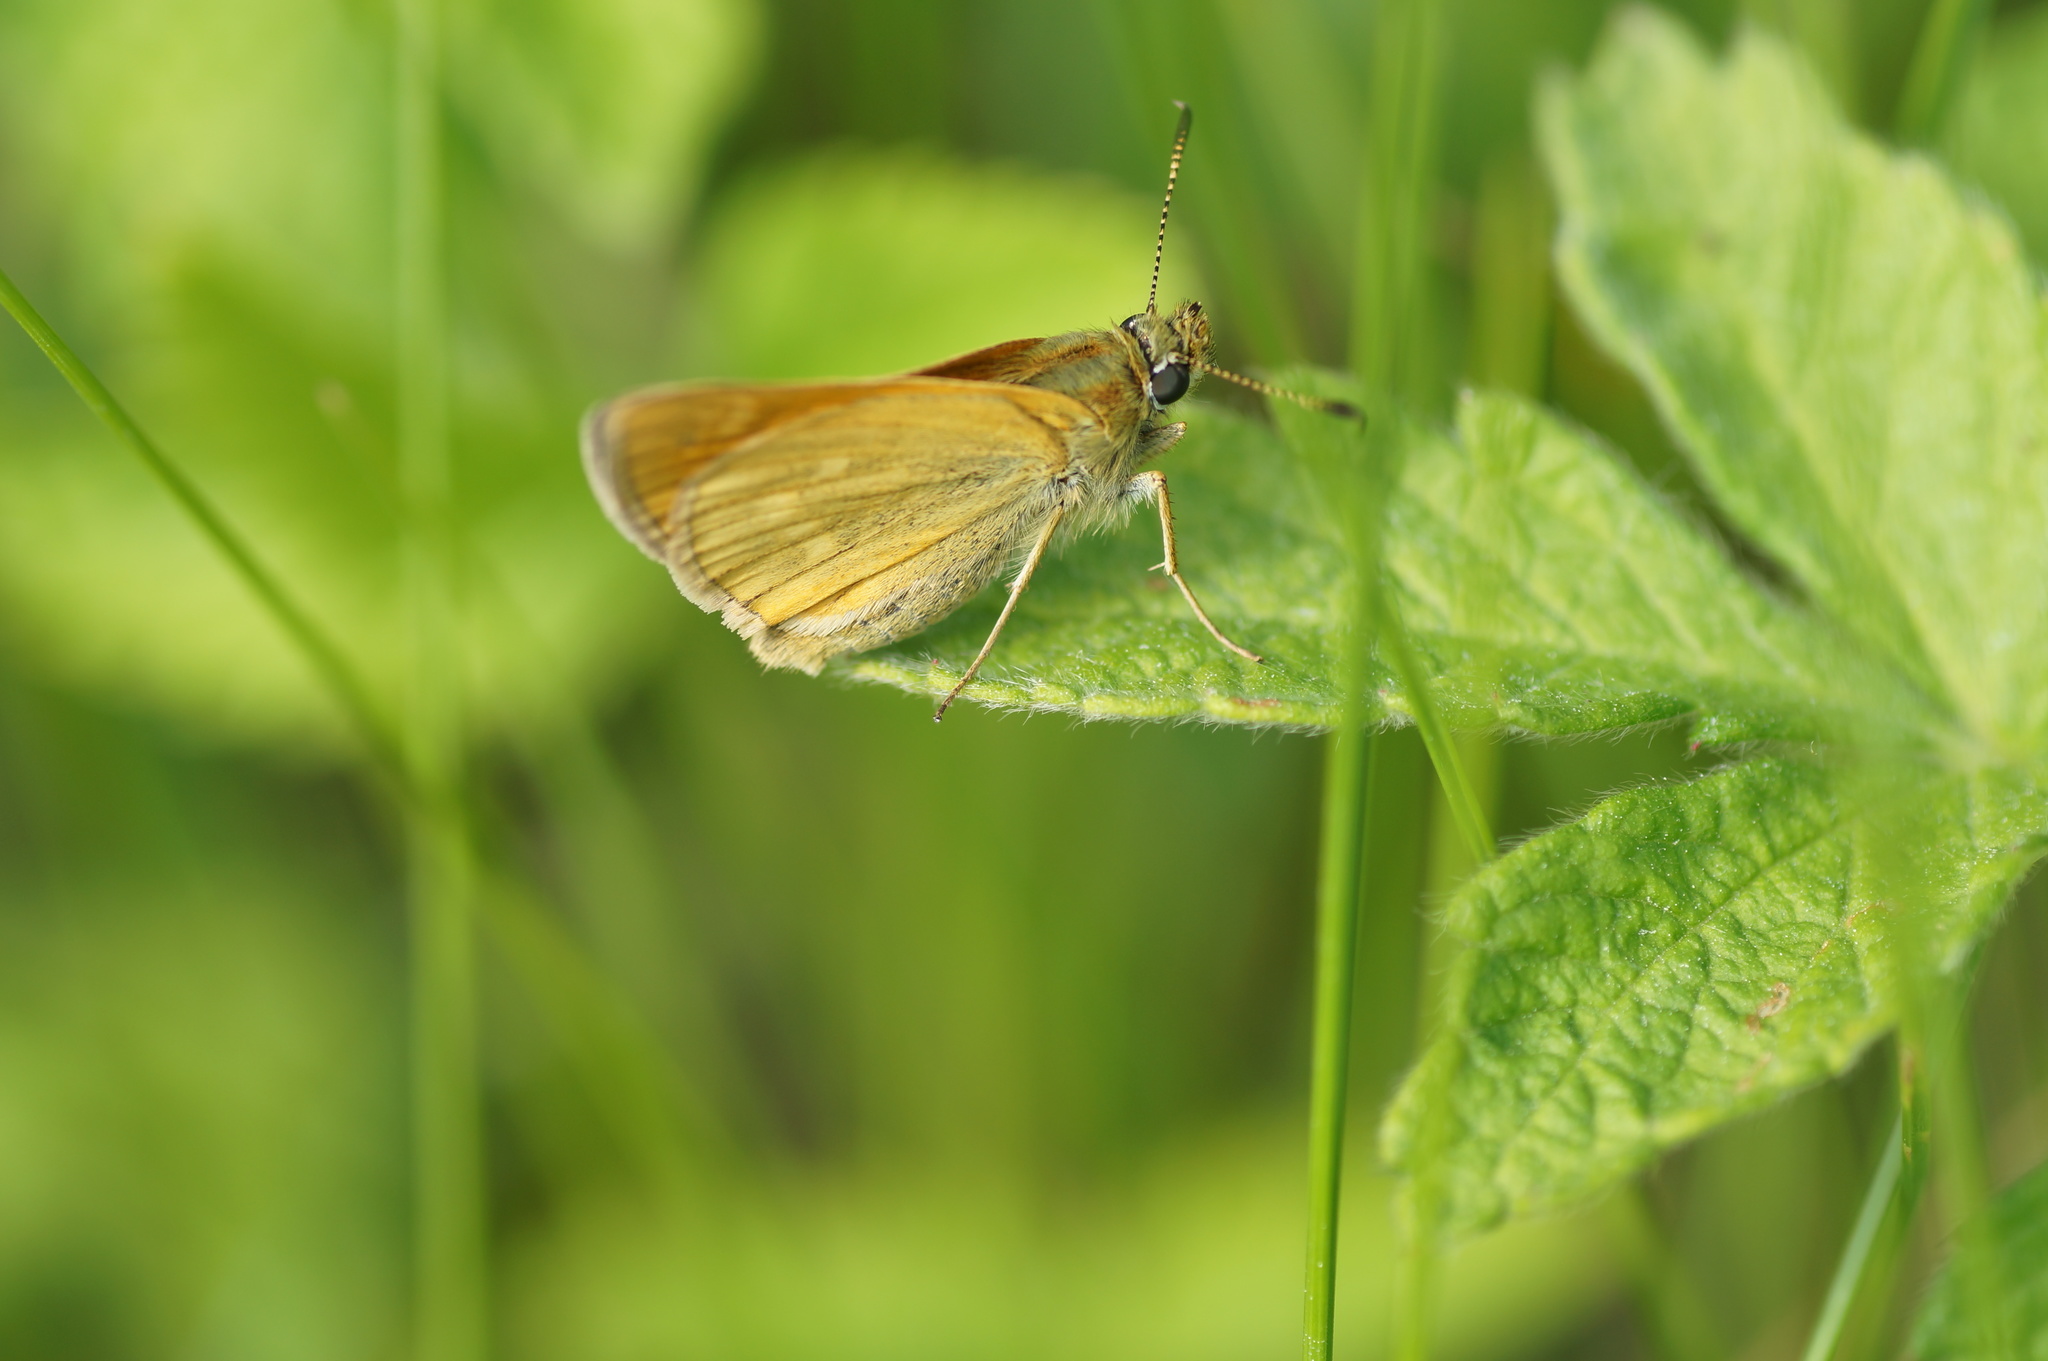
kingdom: Animalia
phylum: Arthropoda
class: Insecta
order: Lepidoptera
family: Hesperiidae
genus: Ochlodes
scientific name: Ochlodes venata
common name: Large skipper
